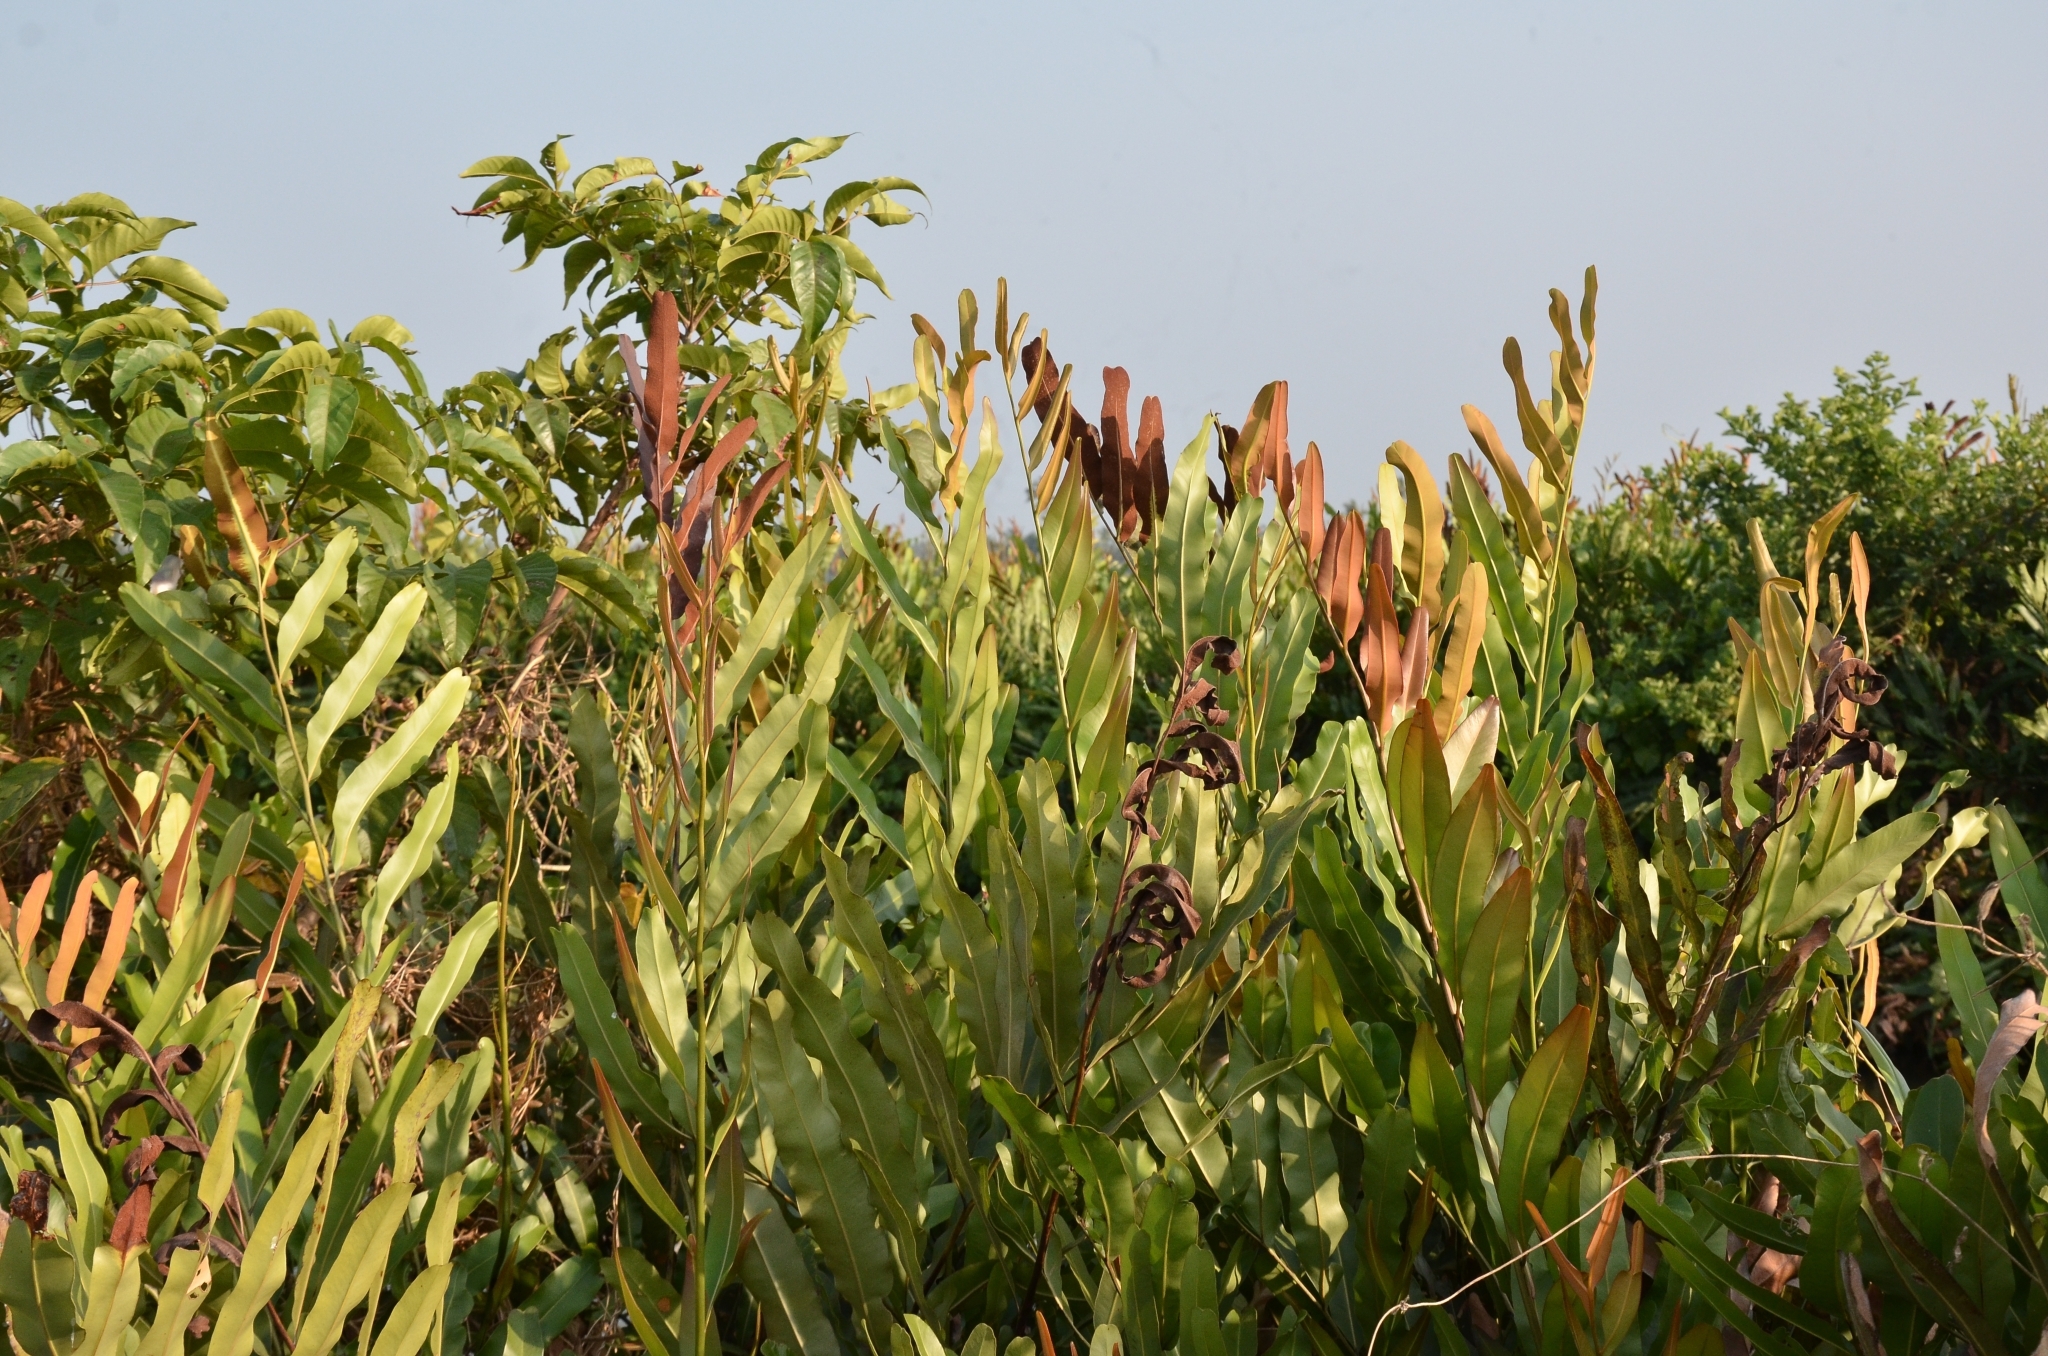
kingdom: Plantae
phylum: Tracheophyta
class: Polypodiopsida
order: Polypodiales
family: Pteridaceae
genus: Acrostichum
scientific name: Acrostichum aureum
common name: Leather fern
